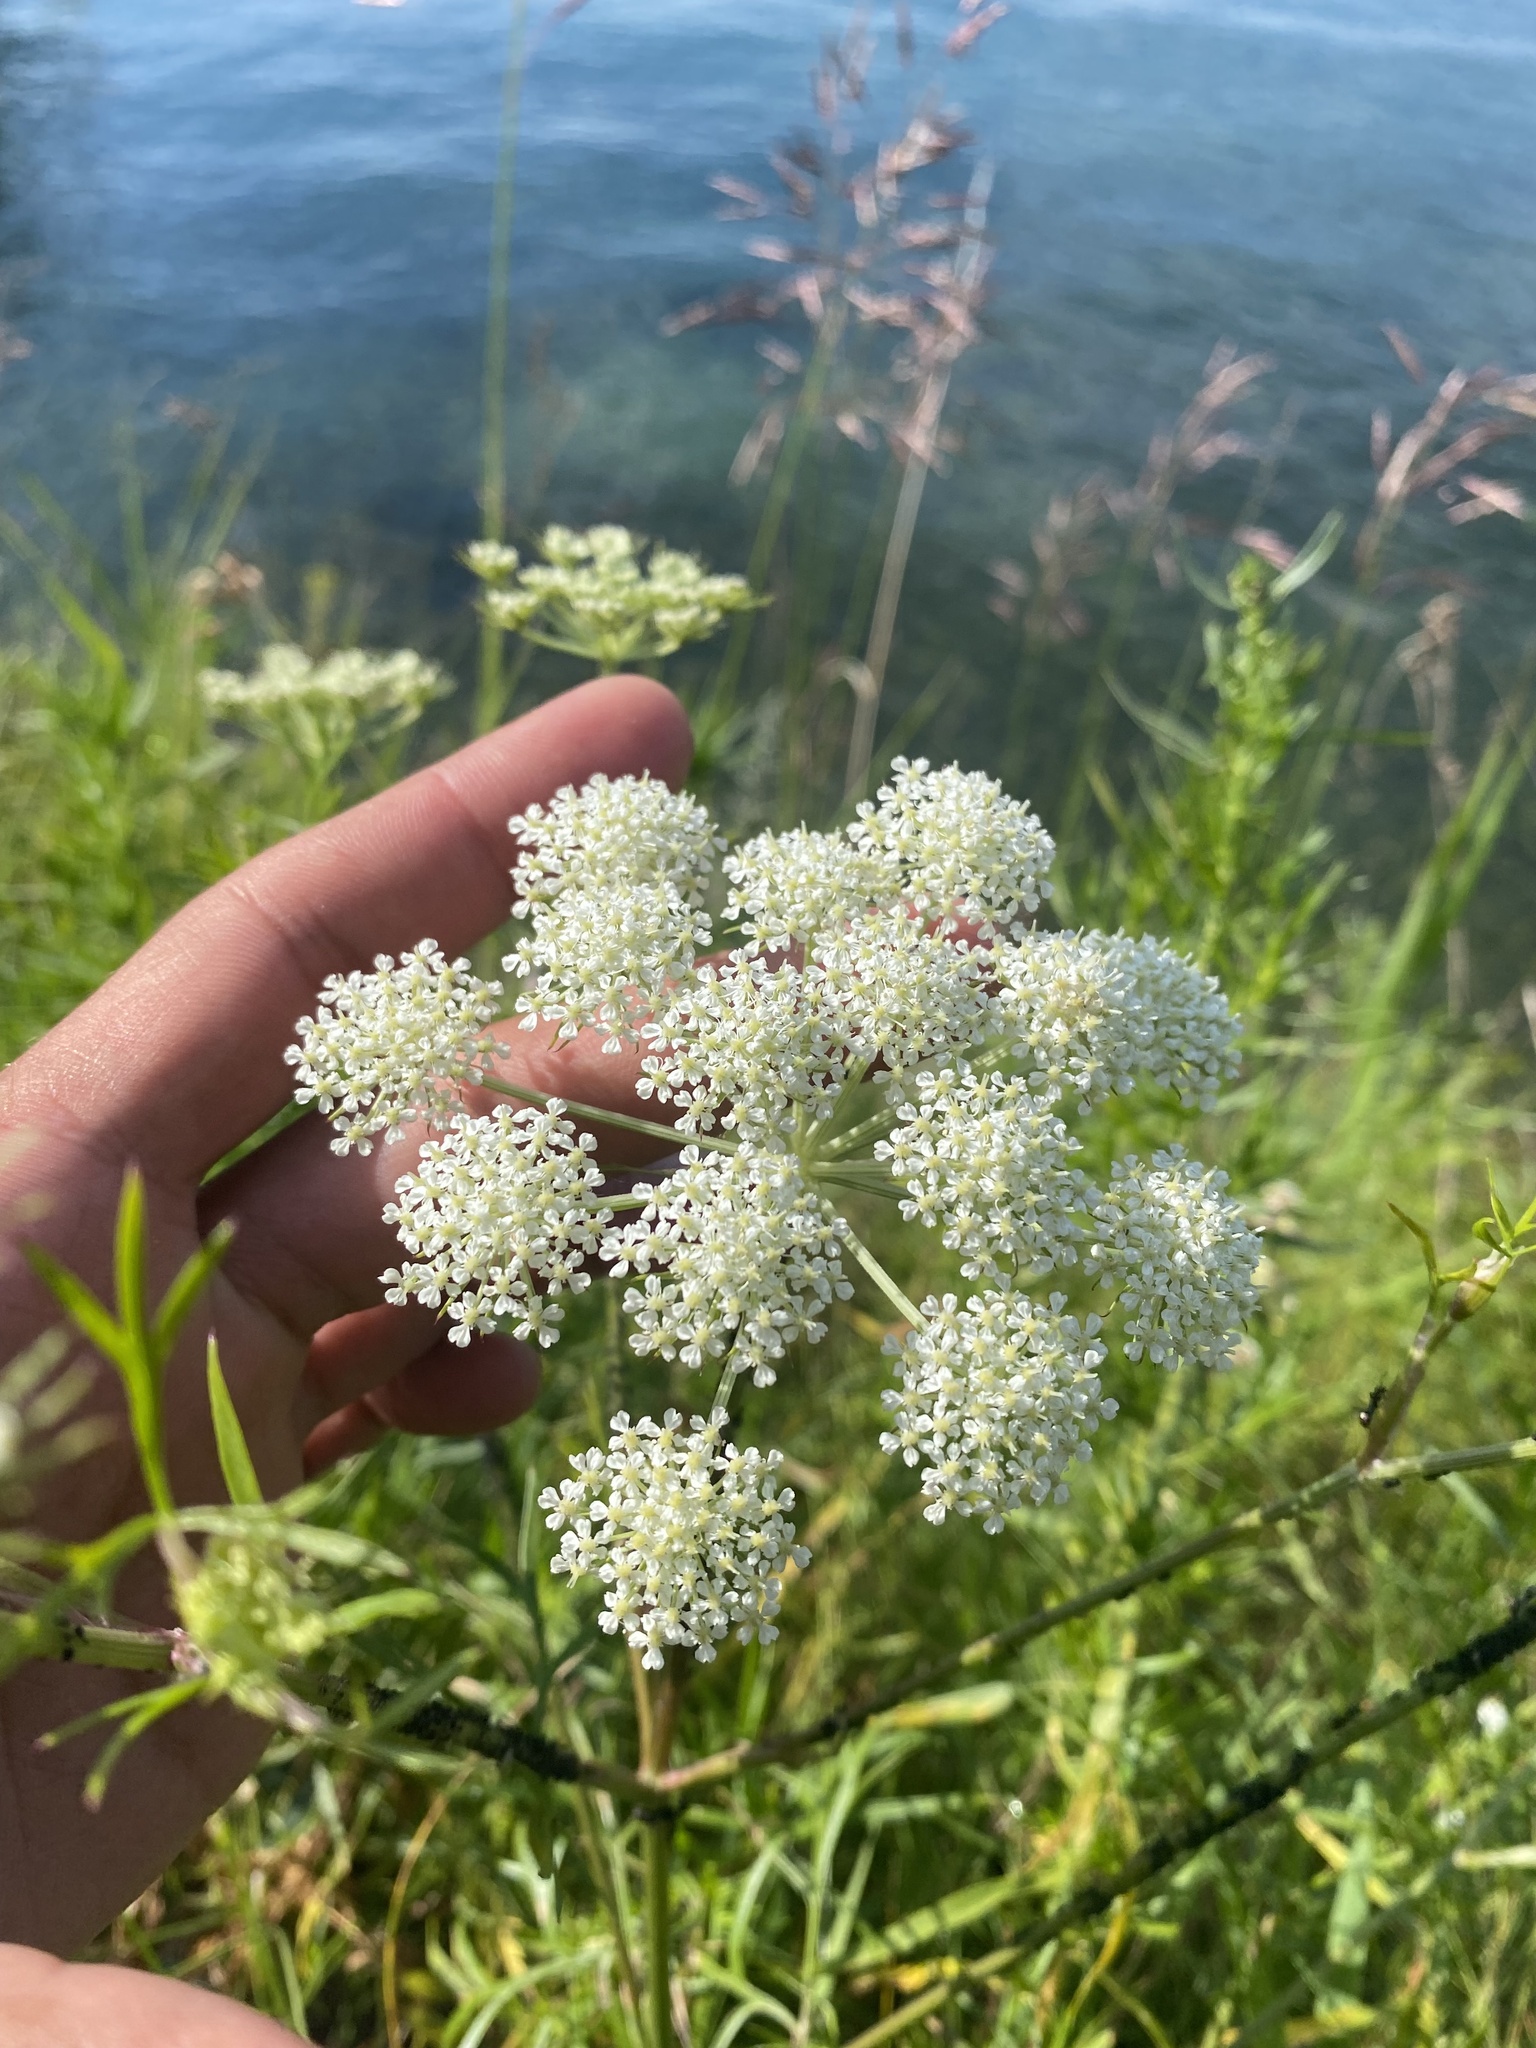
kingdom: Plantae
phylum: Tracheophyta
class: Magnoliopsida
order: Apiales
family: Apiaceae
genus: Kitagawia
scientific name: Kitagawia baicalensis
